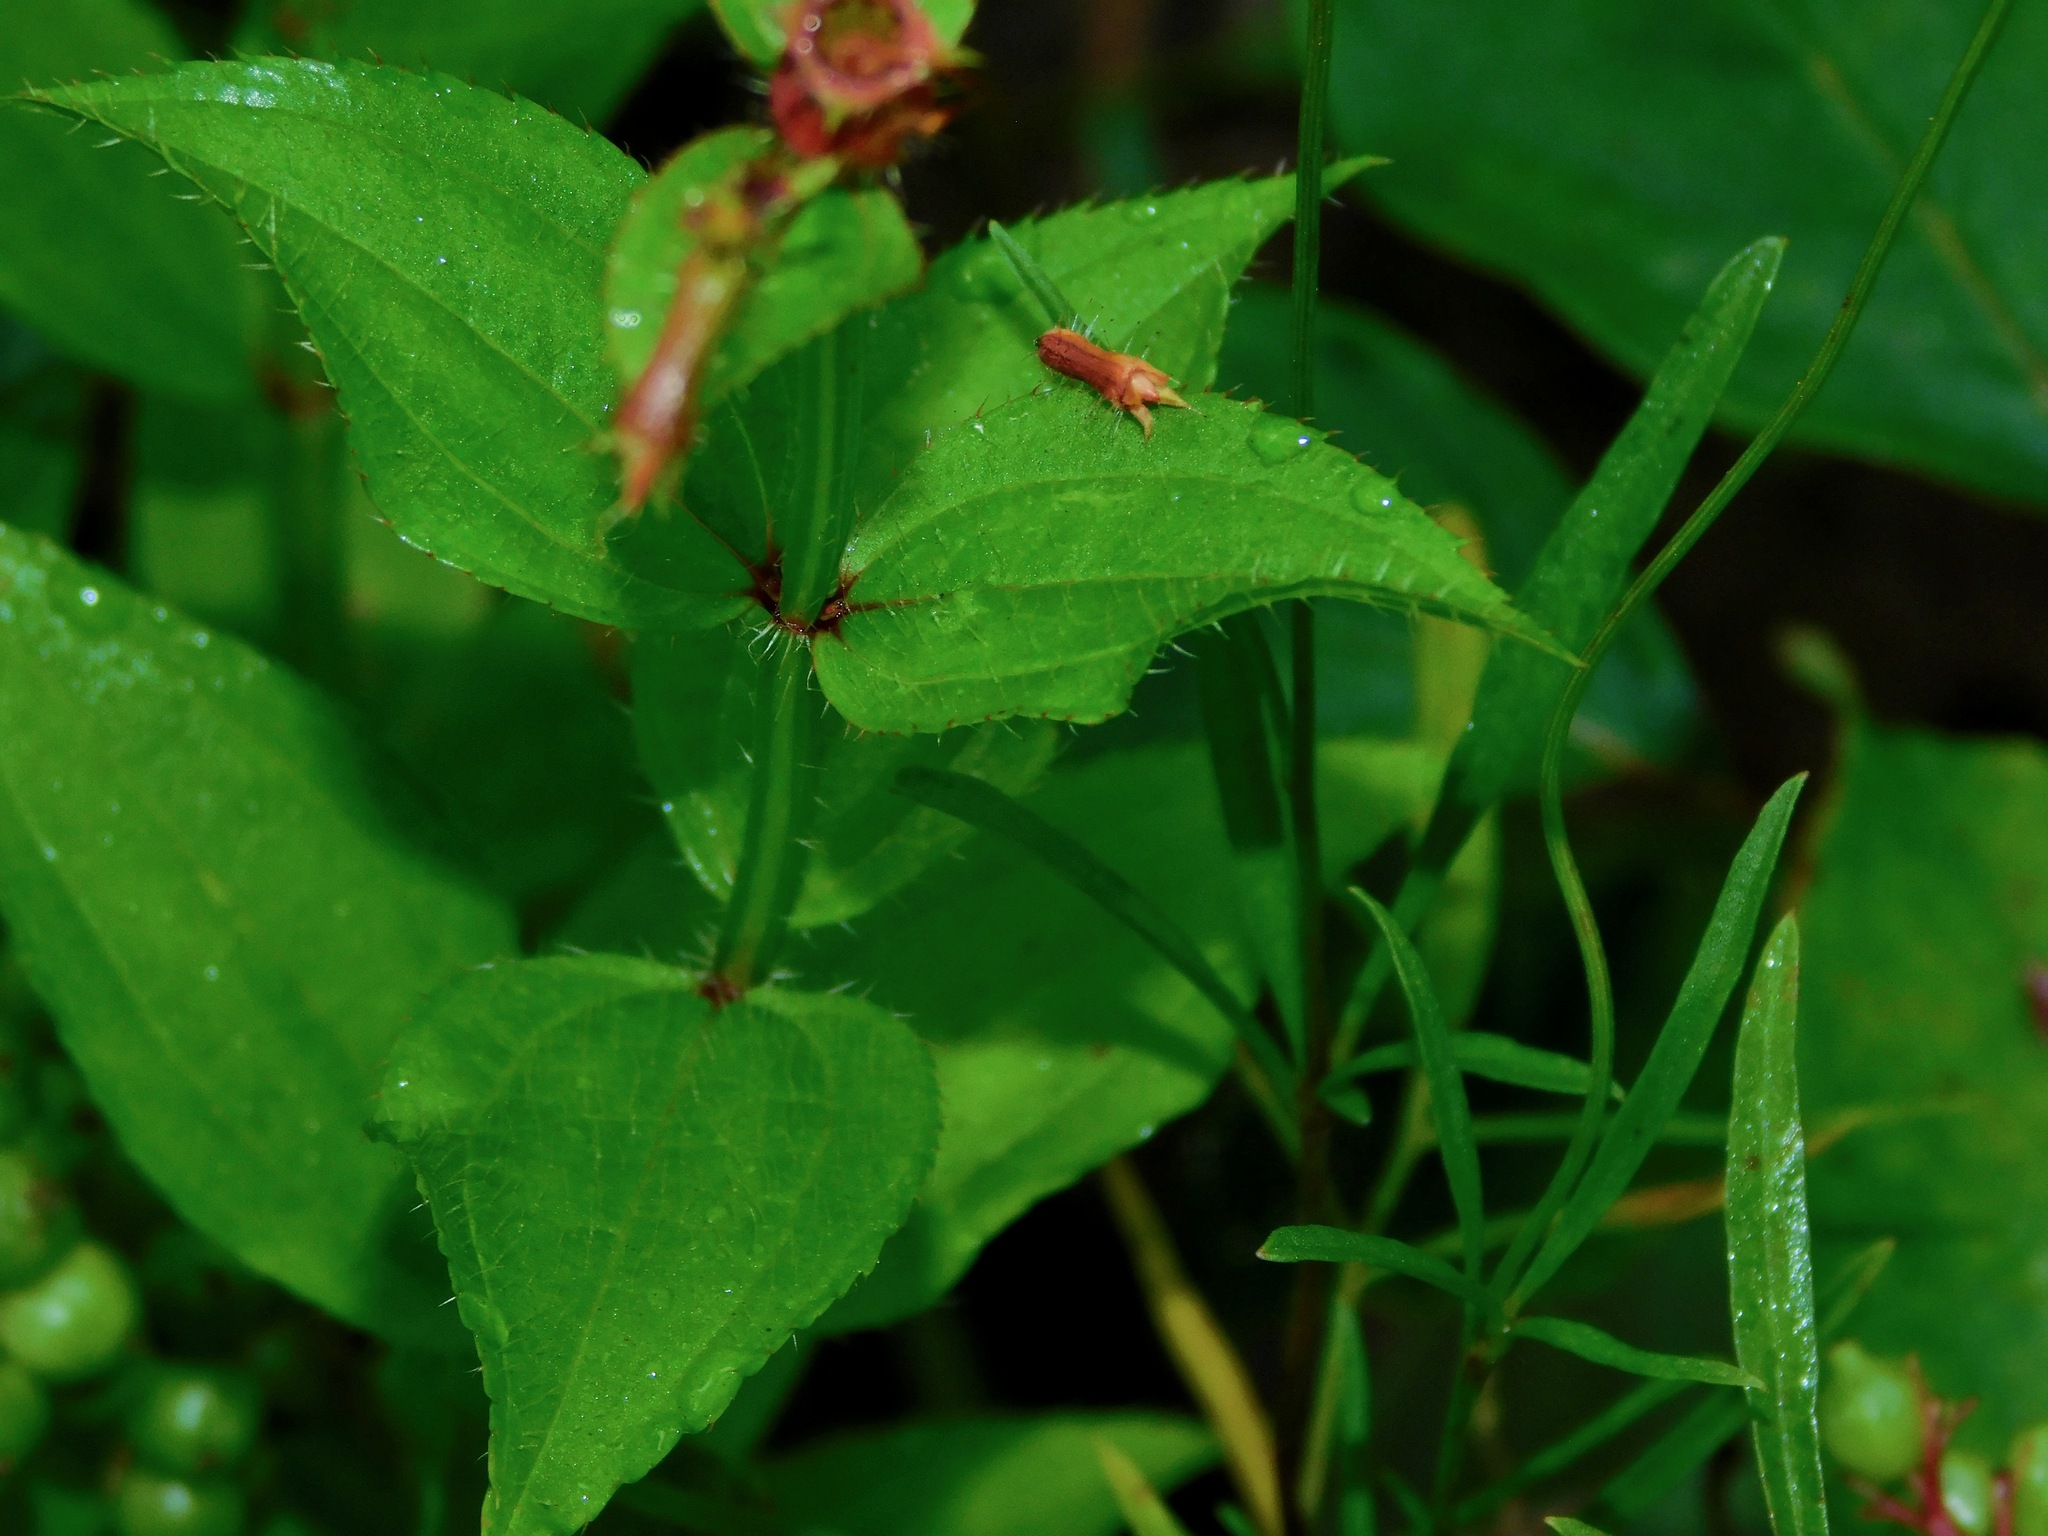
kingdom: Plantae
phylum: Tracheophyta
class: Magnoliopsida
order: Myrtales
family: Melastomataceae
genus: Rhexia
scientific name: Rhexia virginica
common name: Common meadow beauty
